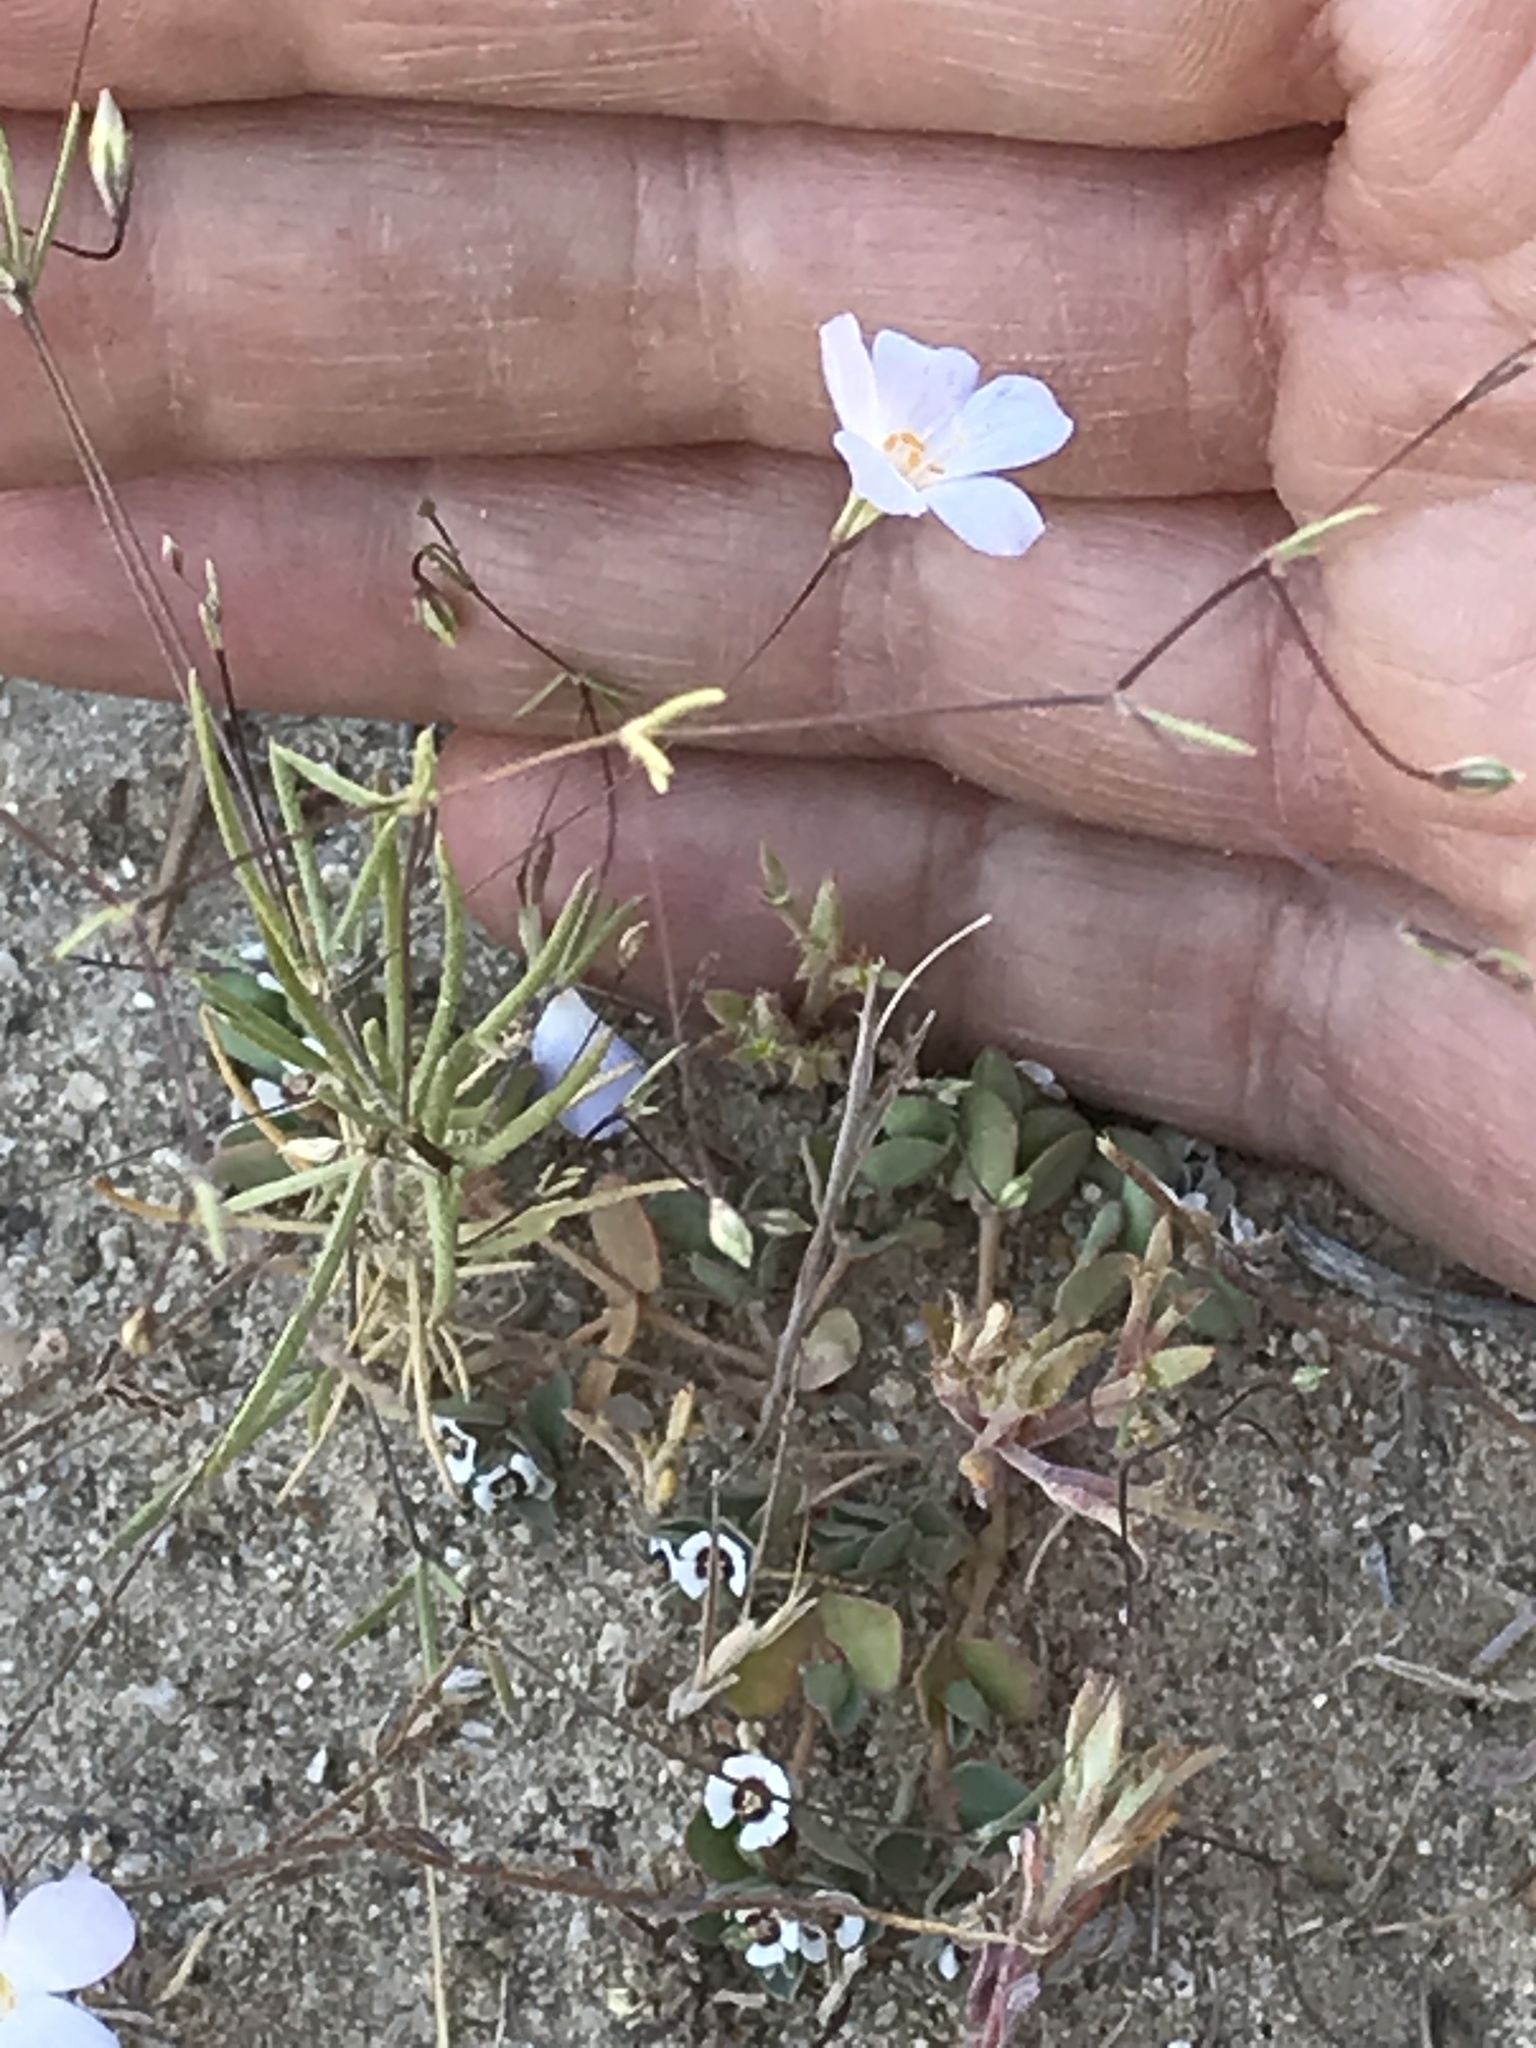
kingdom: Plantae
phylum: Tracheophyta
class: Magnoliopsida
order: Ericales
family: Polemoniaceae
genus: Leptosiphon
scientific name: Leptosiphon liniflorus
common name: Narrowflower flaxflower
